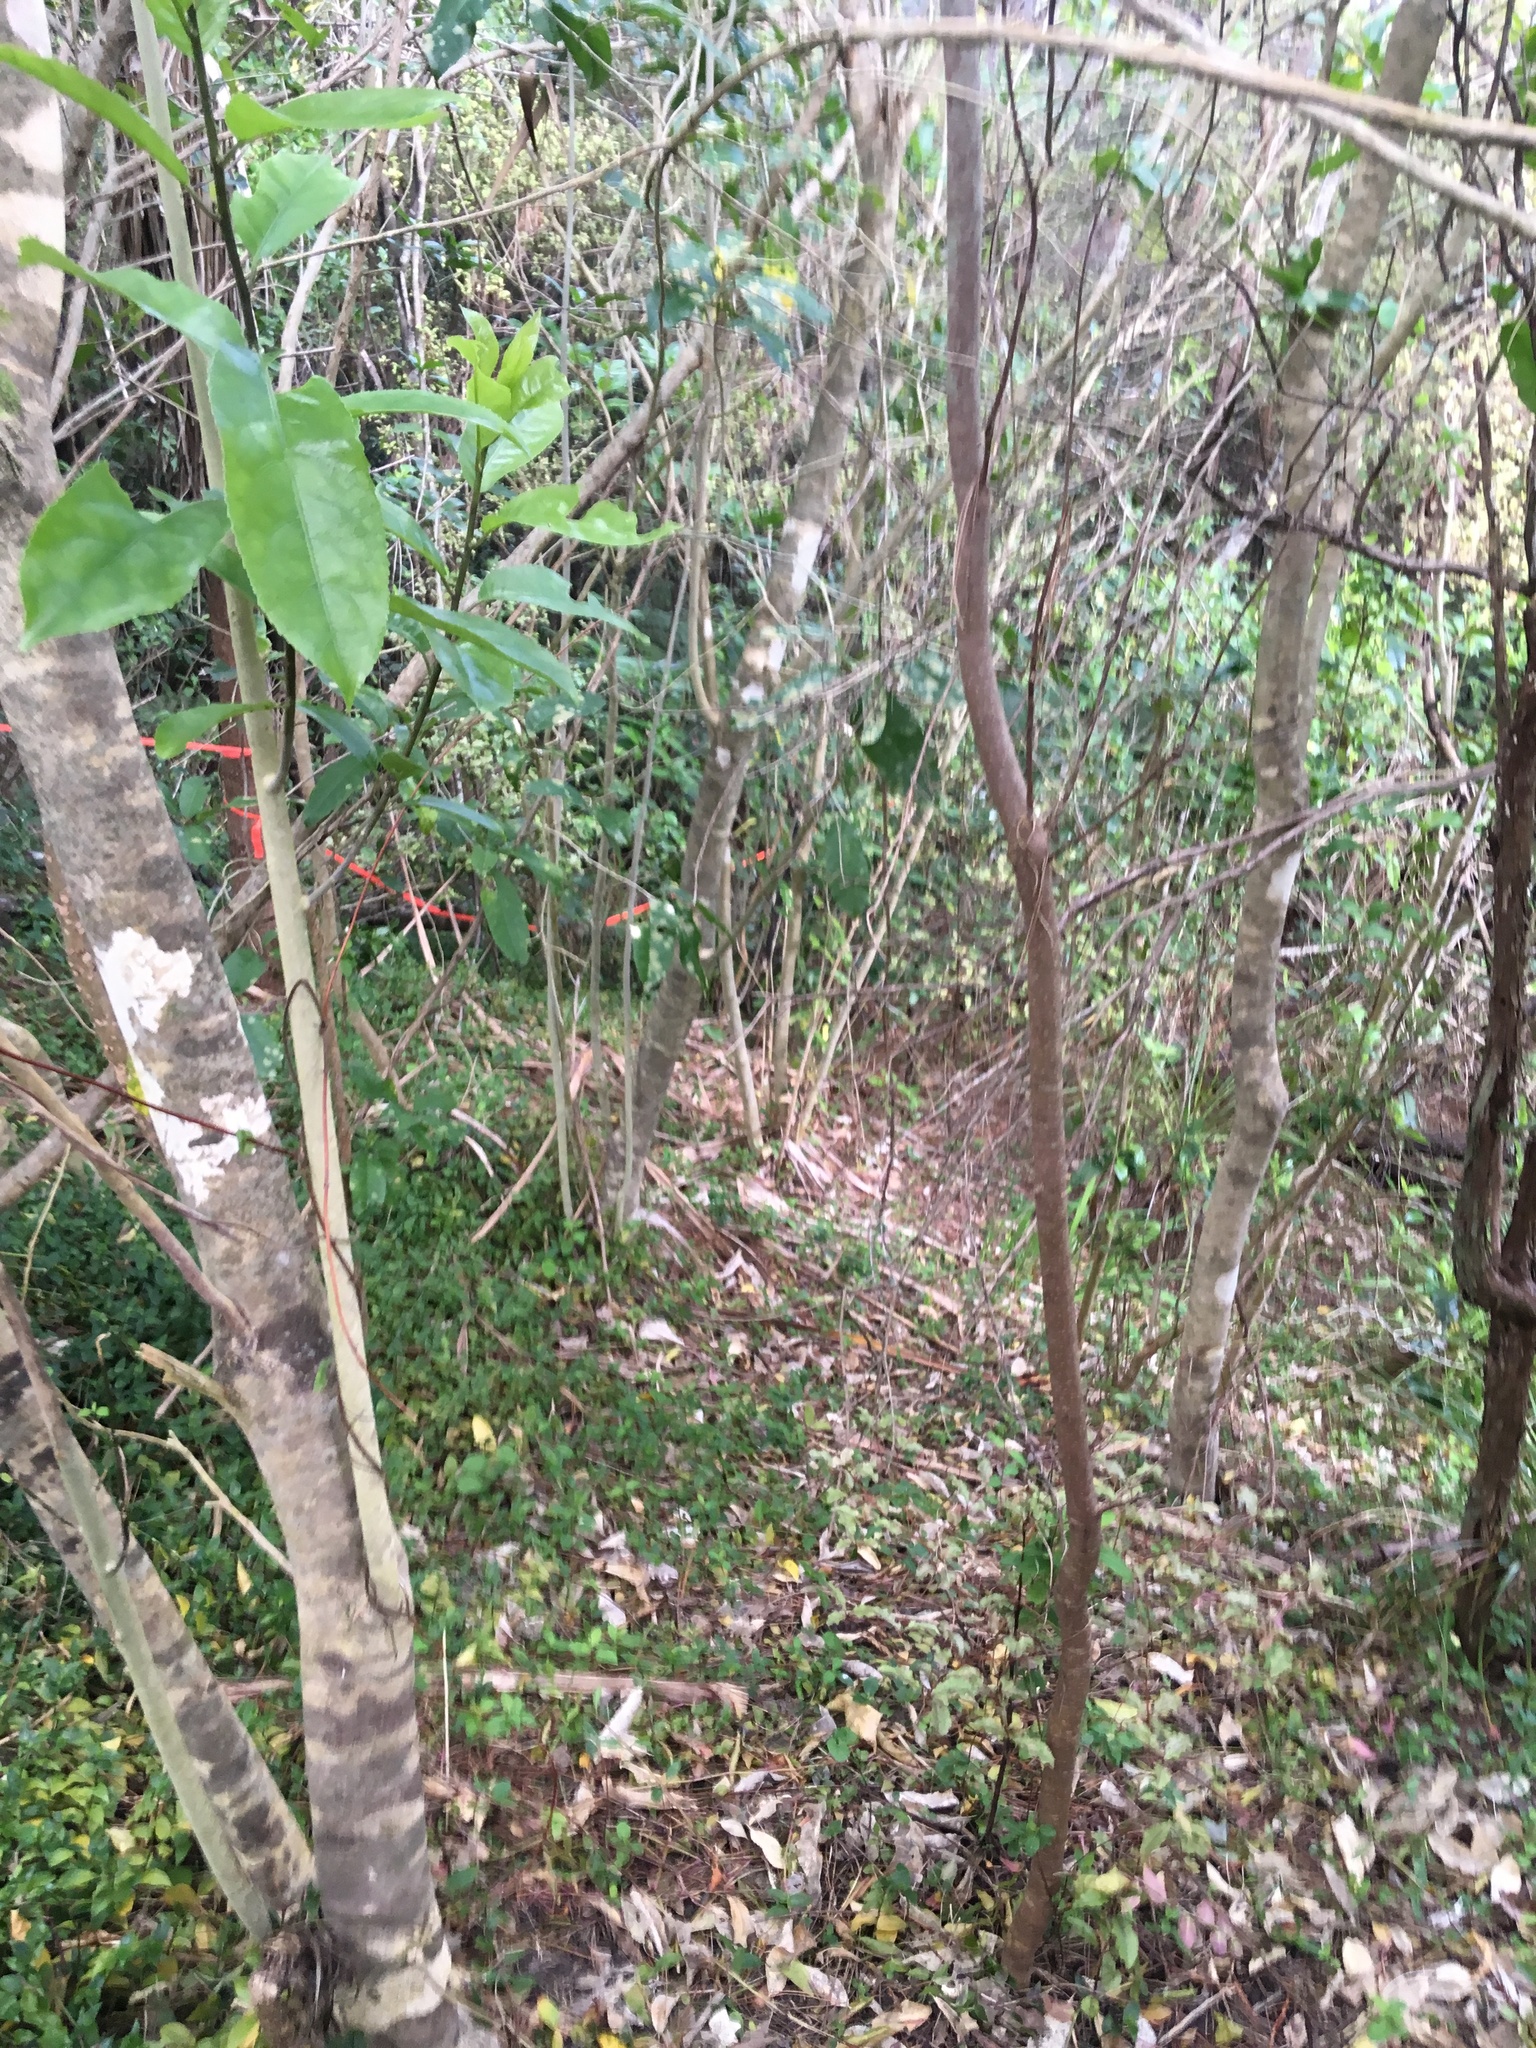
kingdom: Plantae
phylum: Tracheophyta
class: Magnoliopsida
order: Malpighiales
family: Violaceae
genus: Melicytus
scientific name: Melicytus ramiflorus
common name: Mahoe
